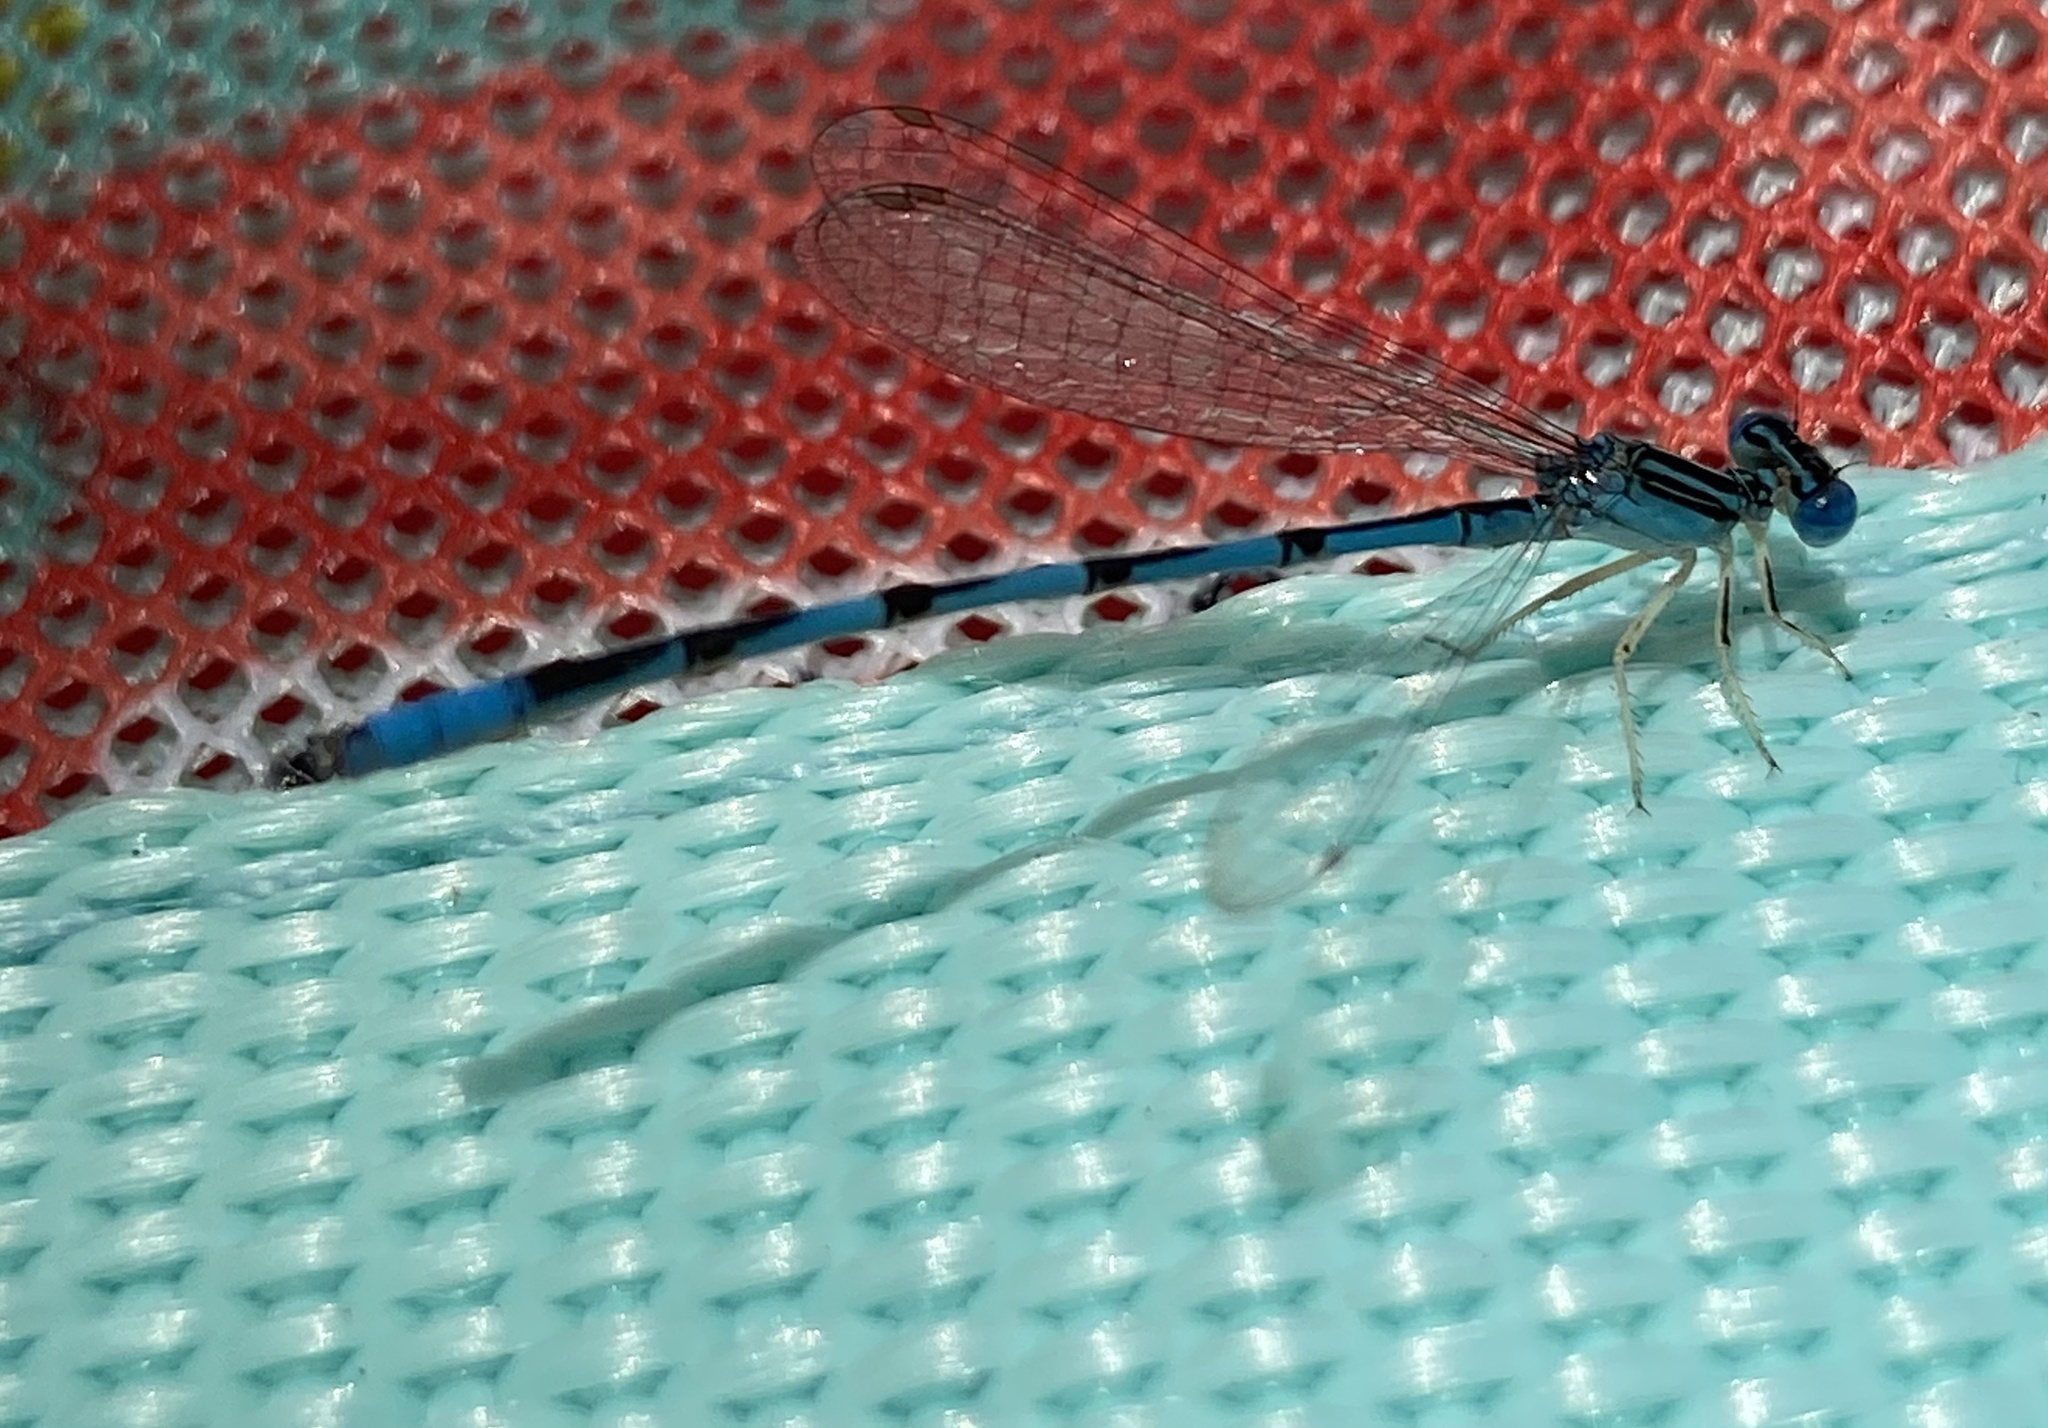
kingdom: Animalia
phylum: Arthropoda
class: Insecta
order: Odonata
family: Coenagrionidae
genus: Enallagma
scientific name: Enallagma basidens
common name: Double-striped bluet
